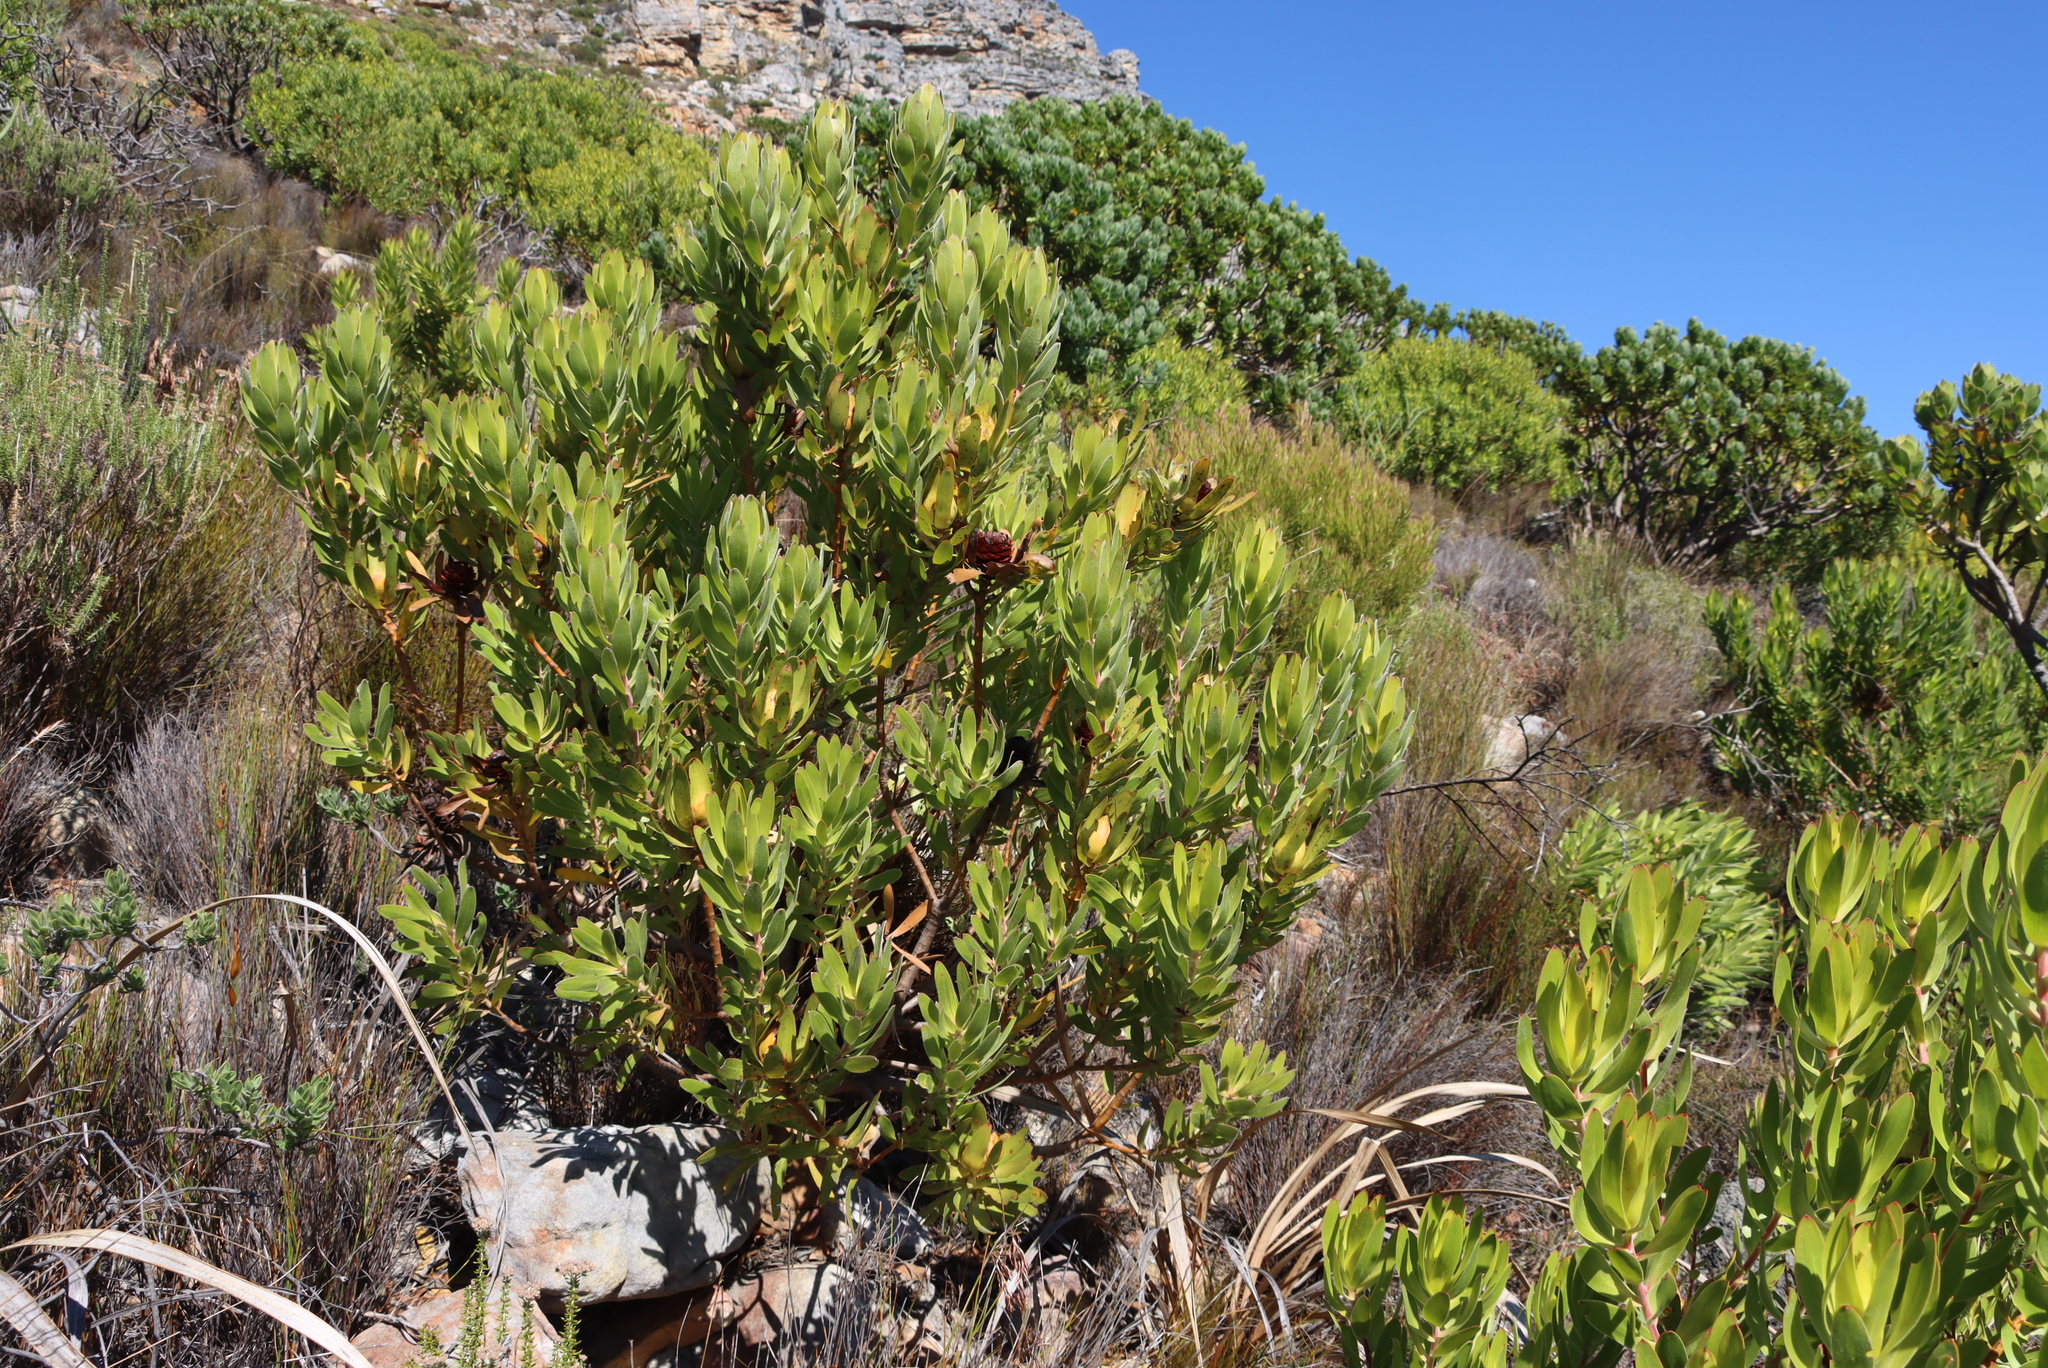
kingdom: Plantae
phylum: Tracheophyta
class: Magnoliopsida
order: Proteales
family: Proteaceae
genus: Leucadendron
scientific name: Leucadendron laureolum
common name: Golden sunshinebush
